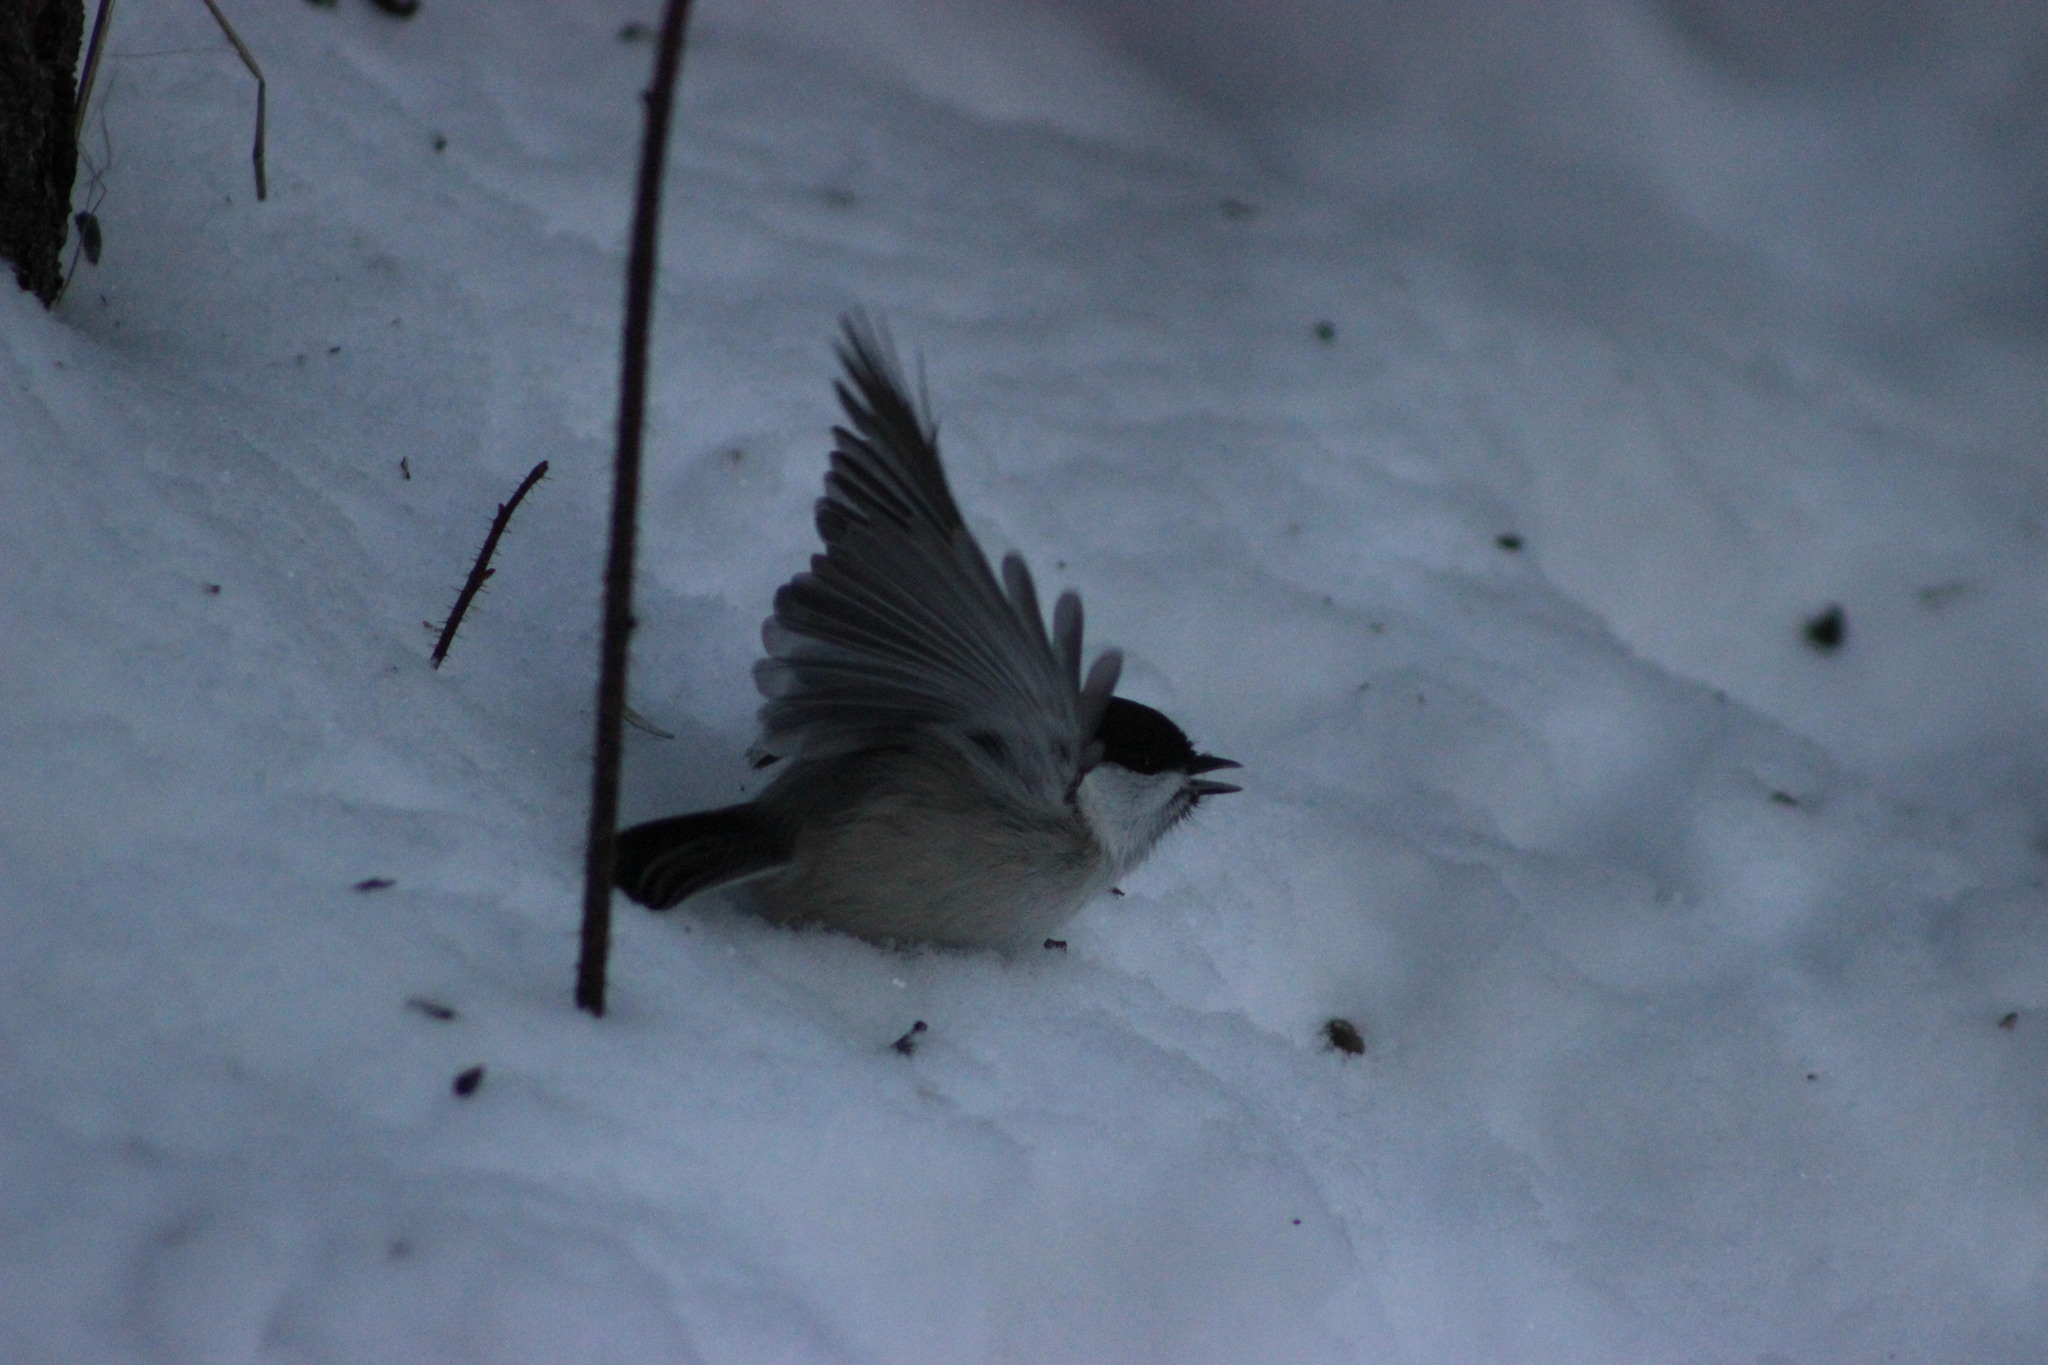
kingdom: Animalia
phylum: Chordata
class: Aves
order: Passeriformes
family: Paridae
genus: Poecile
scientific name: Poecile montanus
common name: Willow tit
